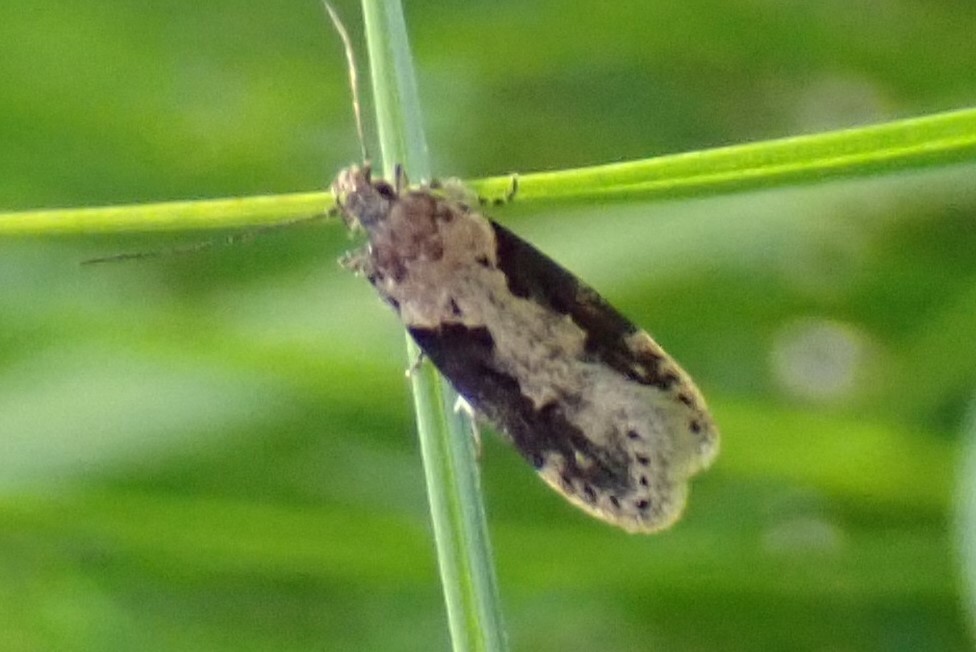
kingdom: Animalia
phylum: Arthropoda
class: Insecta
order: Lepidoptera
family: Gelechiidae
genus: Chionodes
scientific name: Chionodes mediofuscella
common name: Black-smudged chionodes moth
